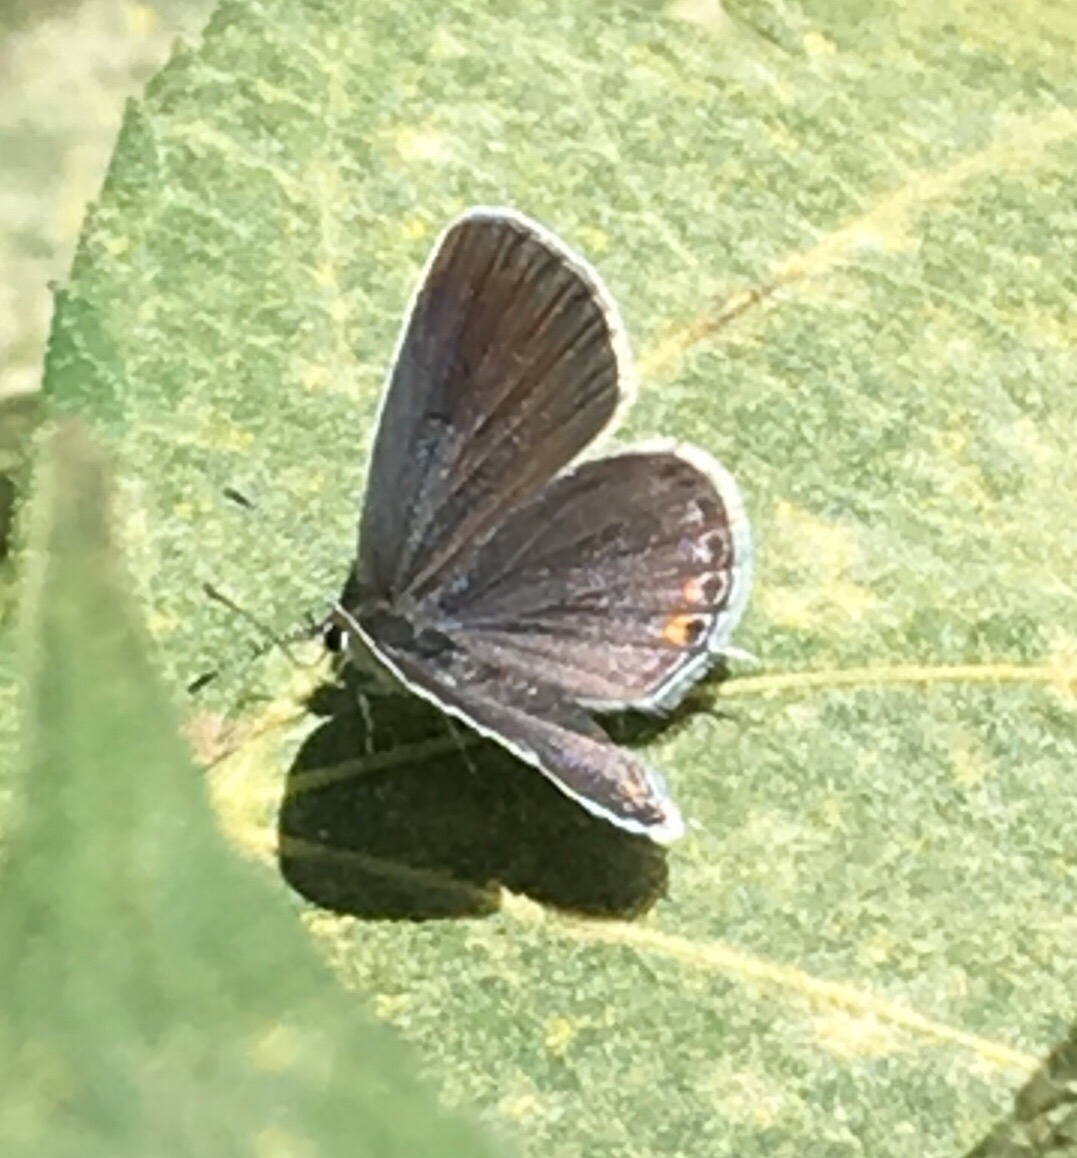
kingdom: Animalia
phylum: Arthropoda
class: Insecta
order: Lepidoptera
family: Lycaenidae
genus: Elkalyce
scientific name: Elkalyce comyntas
